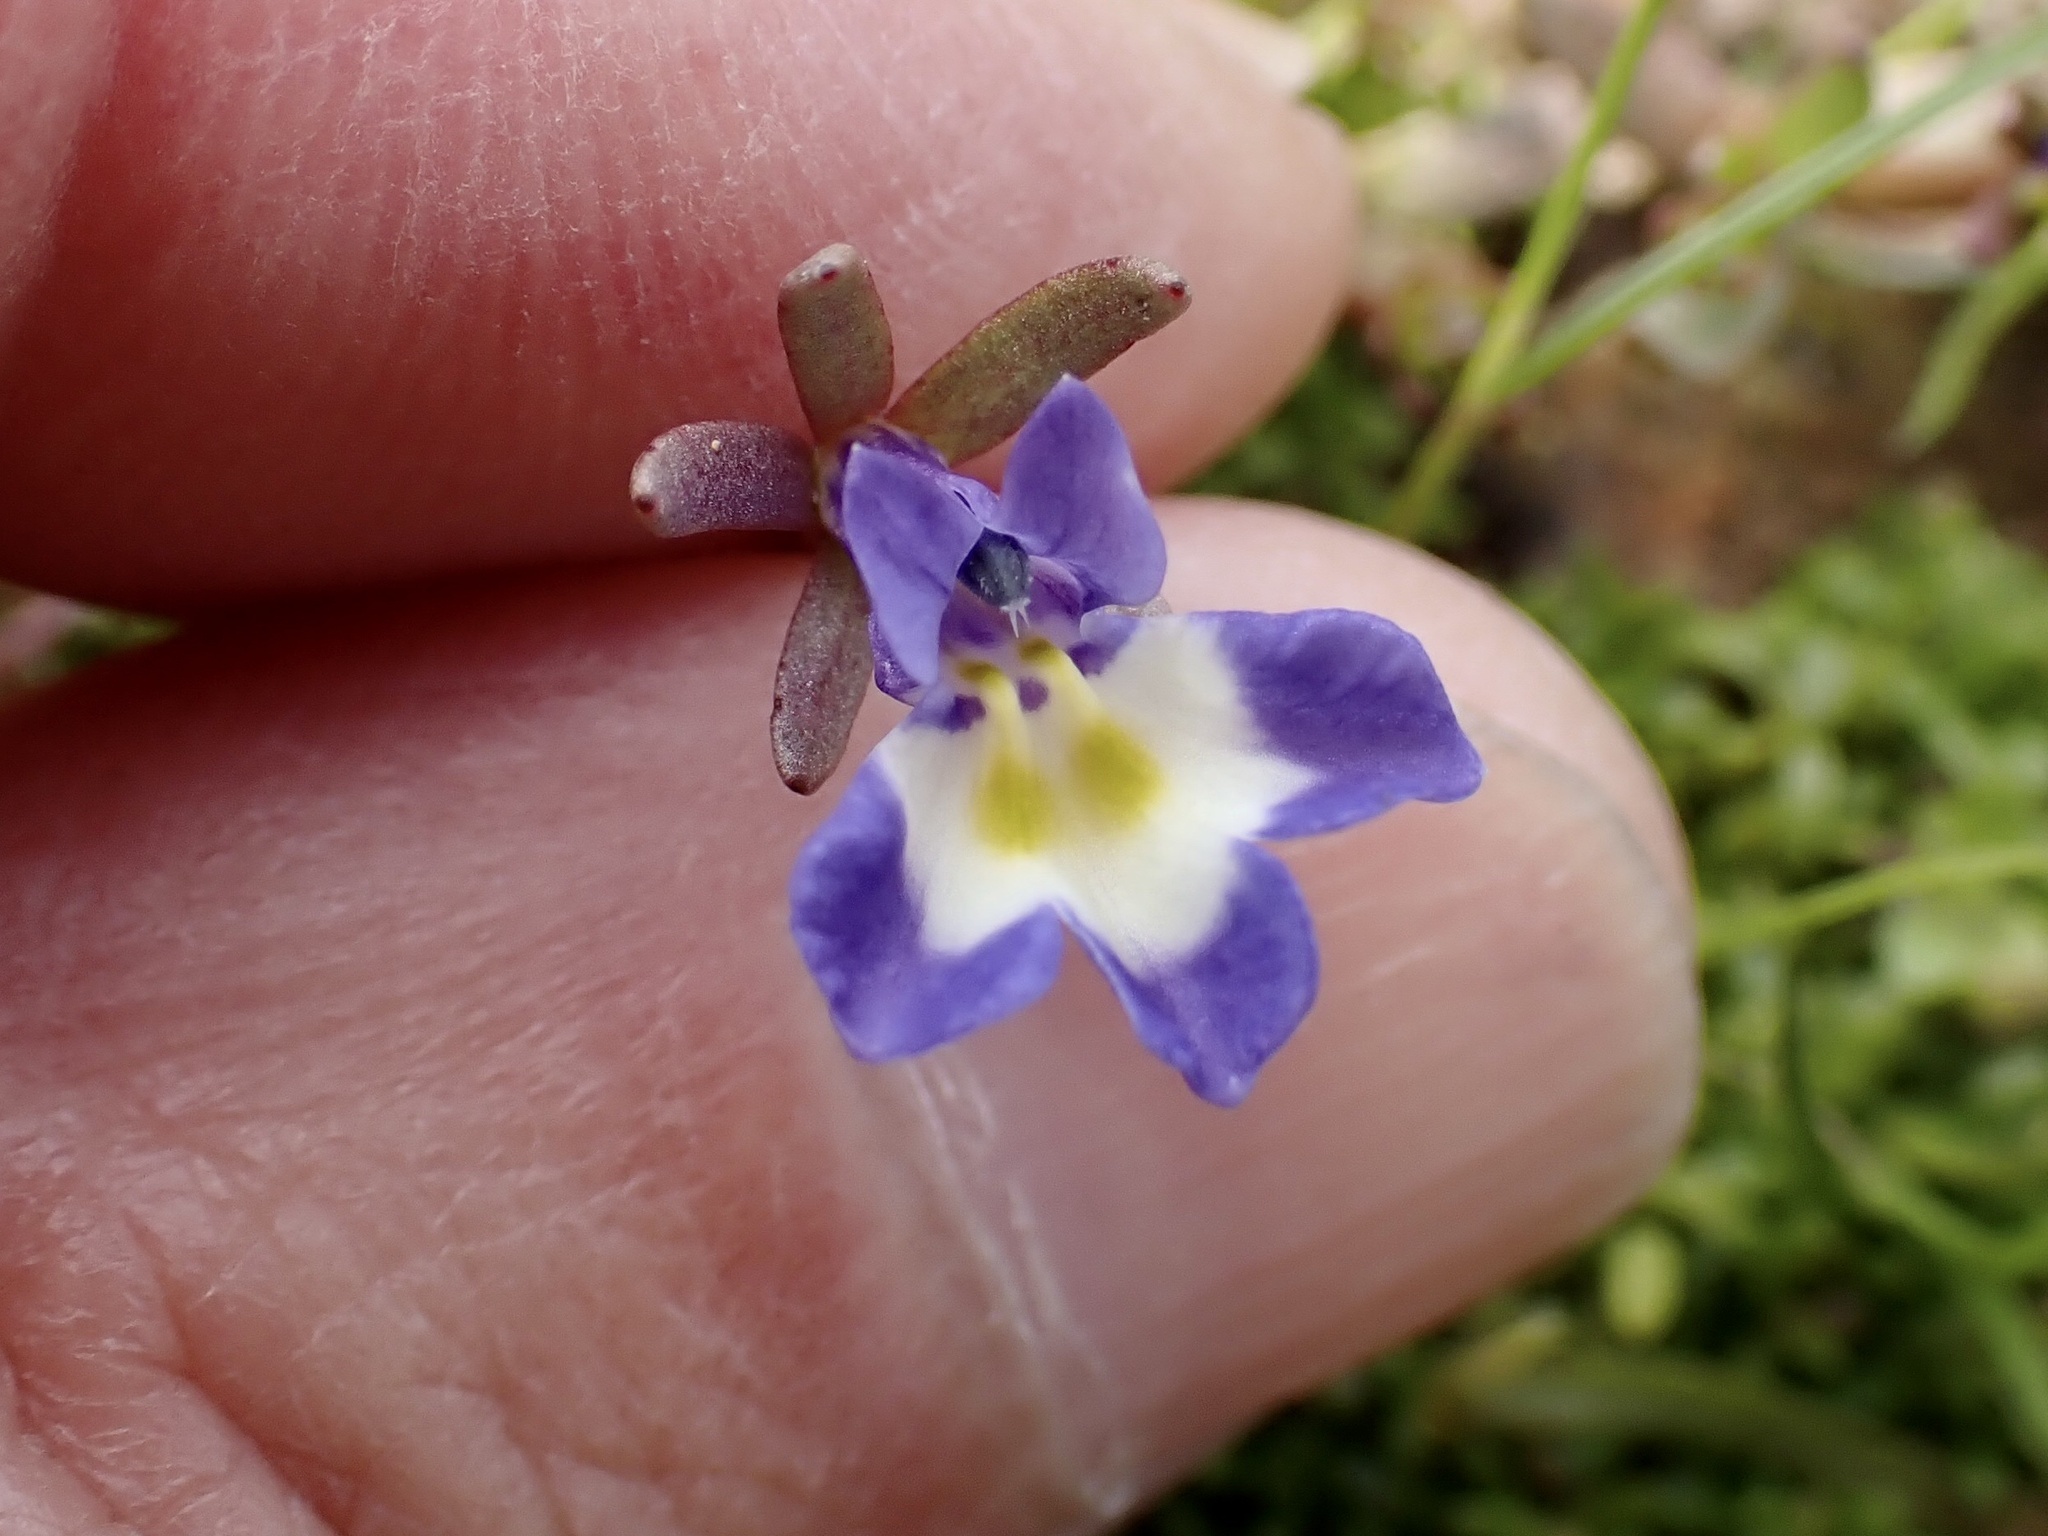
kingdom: Plantae
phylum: Tracheophyta
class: Magnoliopsida
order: Asterales
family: Campanulaceae
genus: Downingia
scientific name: Downingia bella
